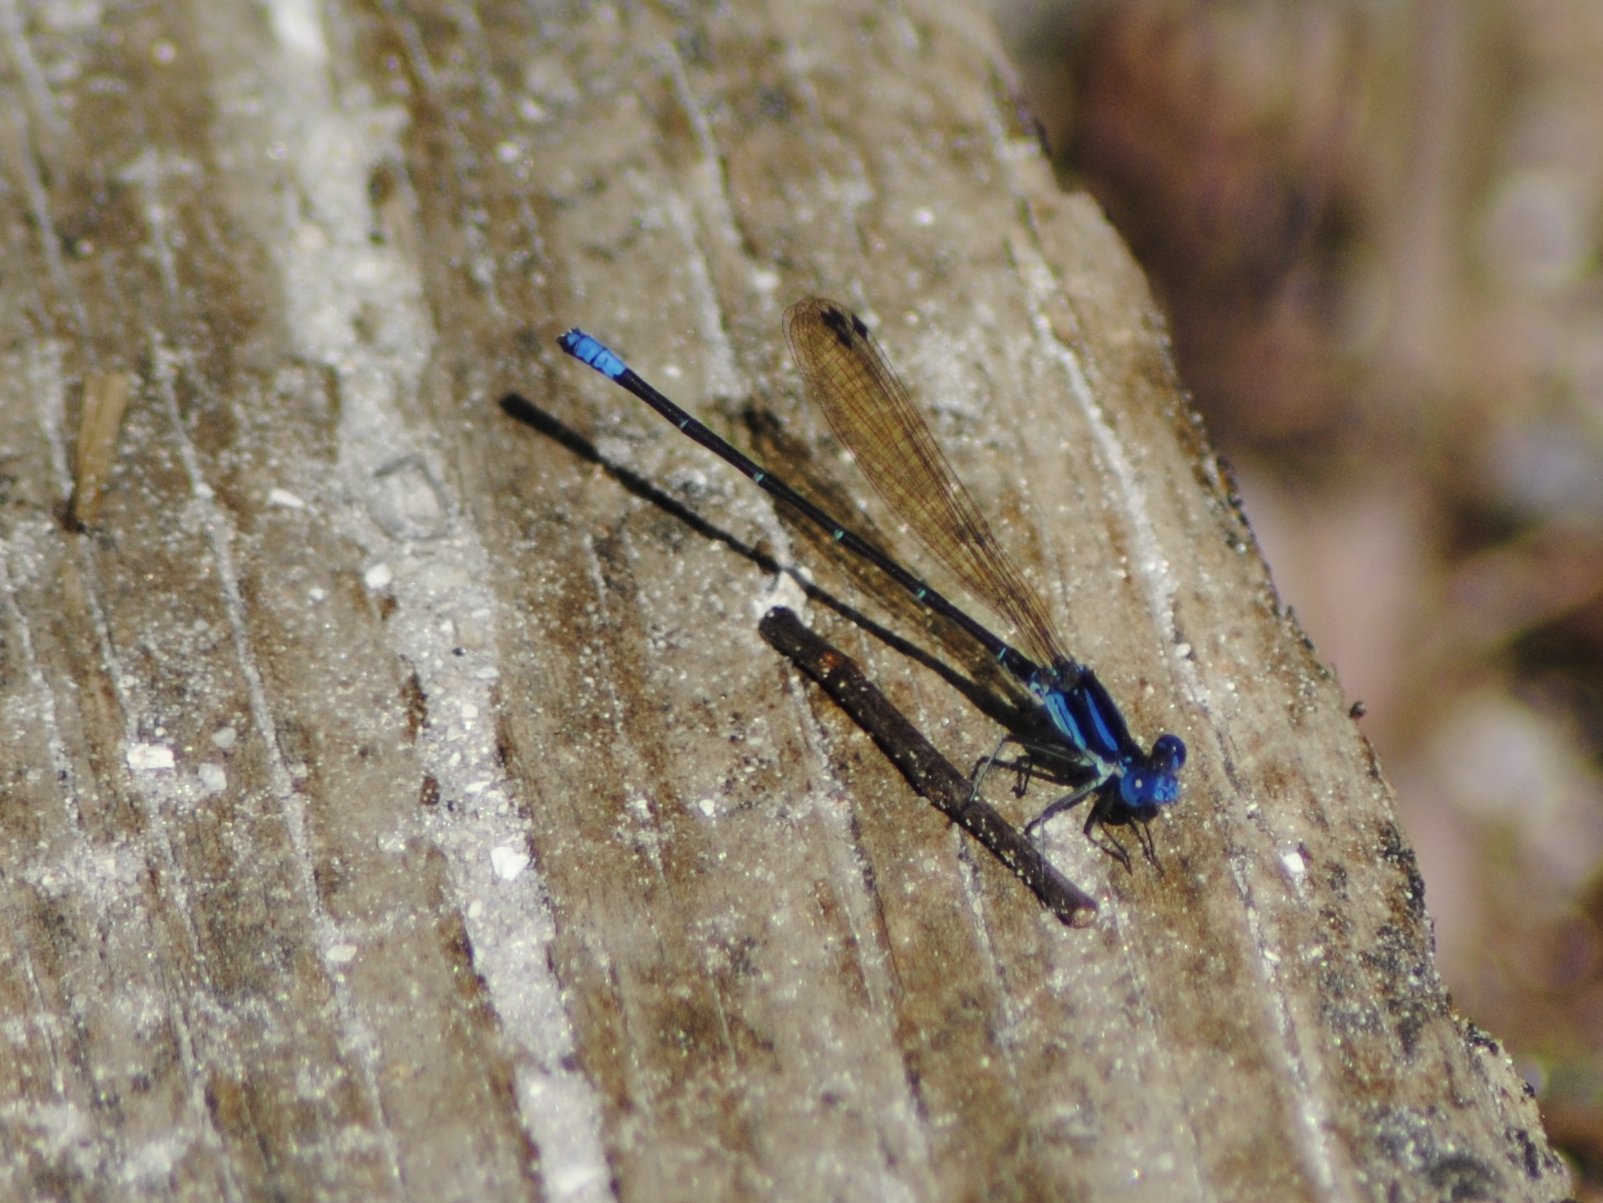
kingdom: Animalia
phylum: Arthropoda
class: Insecta
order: Odonata
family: Coenagrionidae
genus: Argia
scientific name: Argia sedula
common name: Blue-ringed dancer
